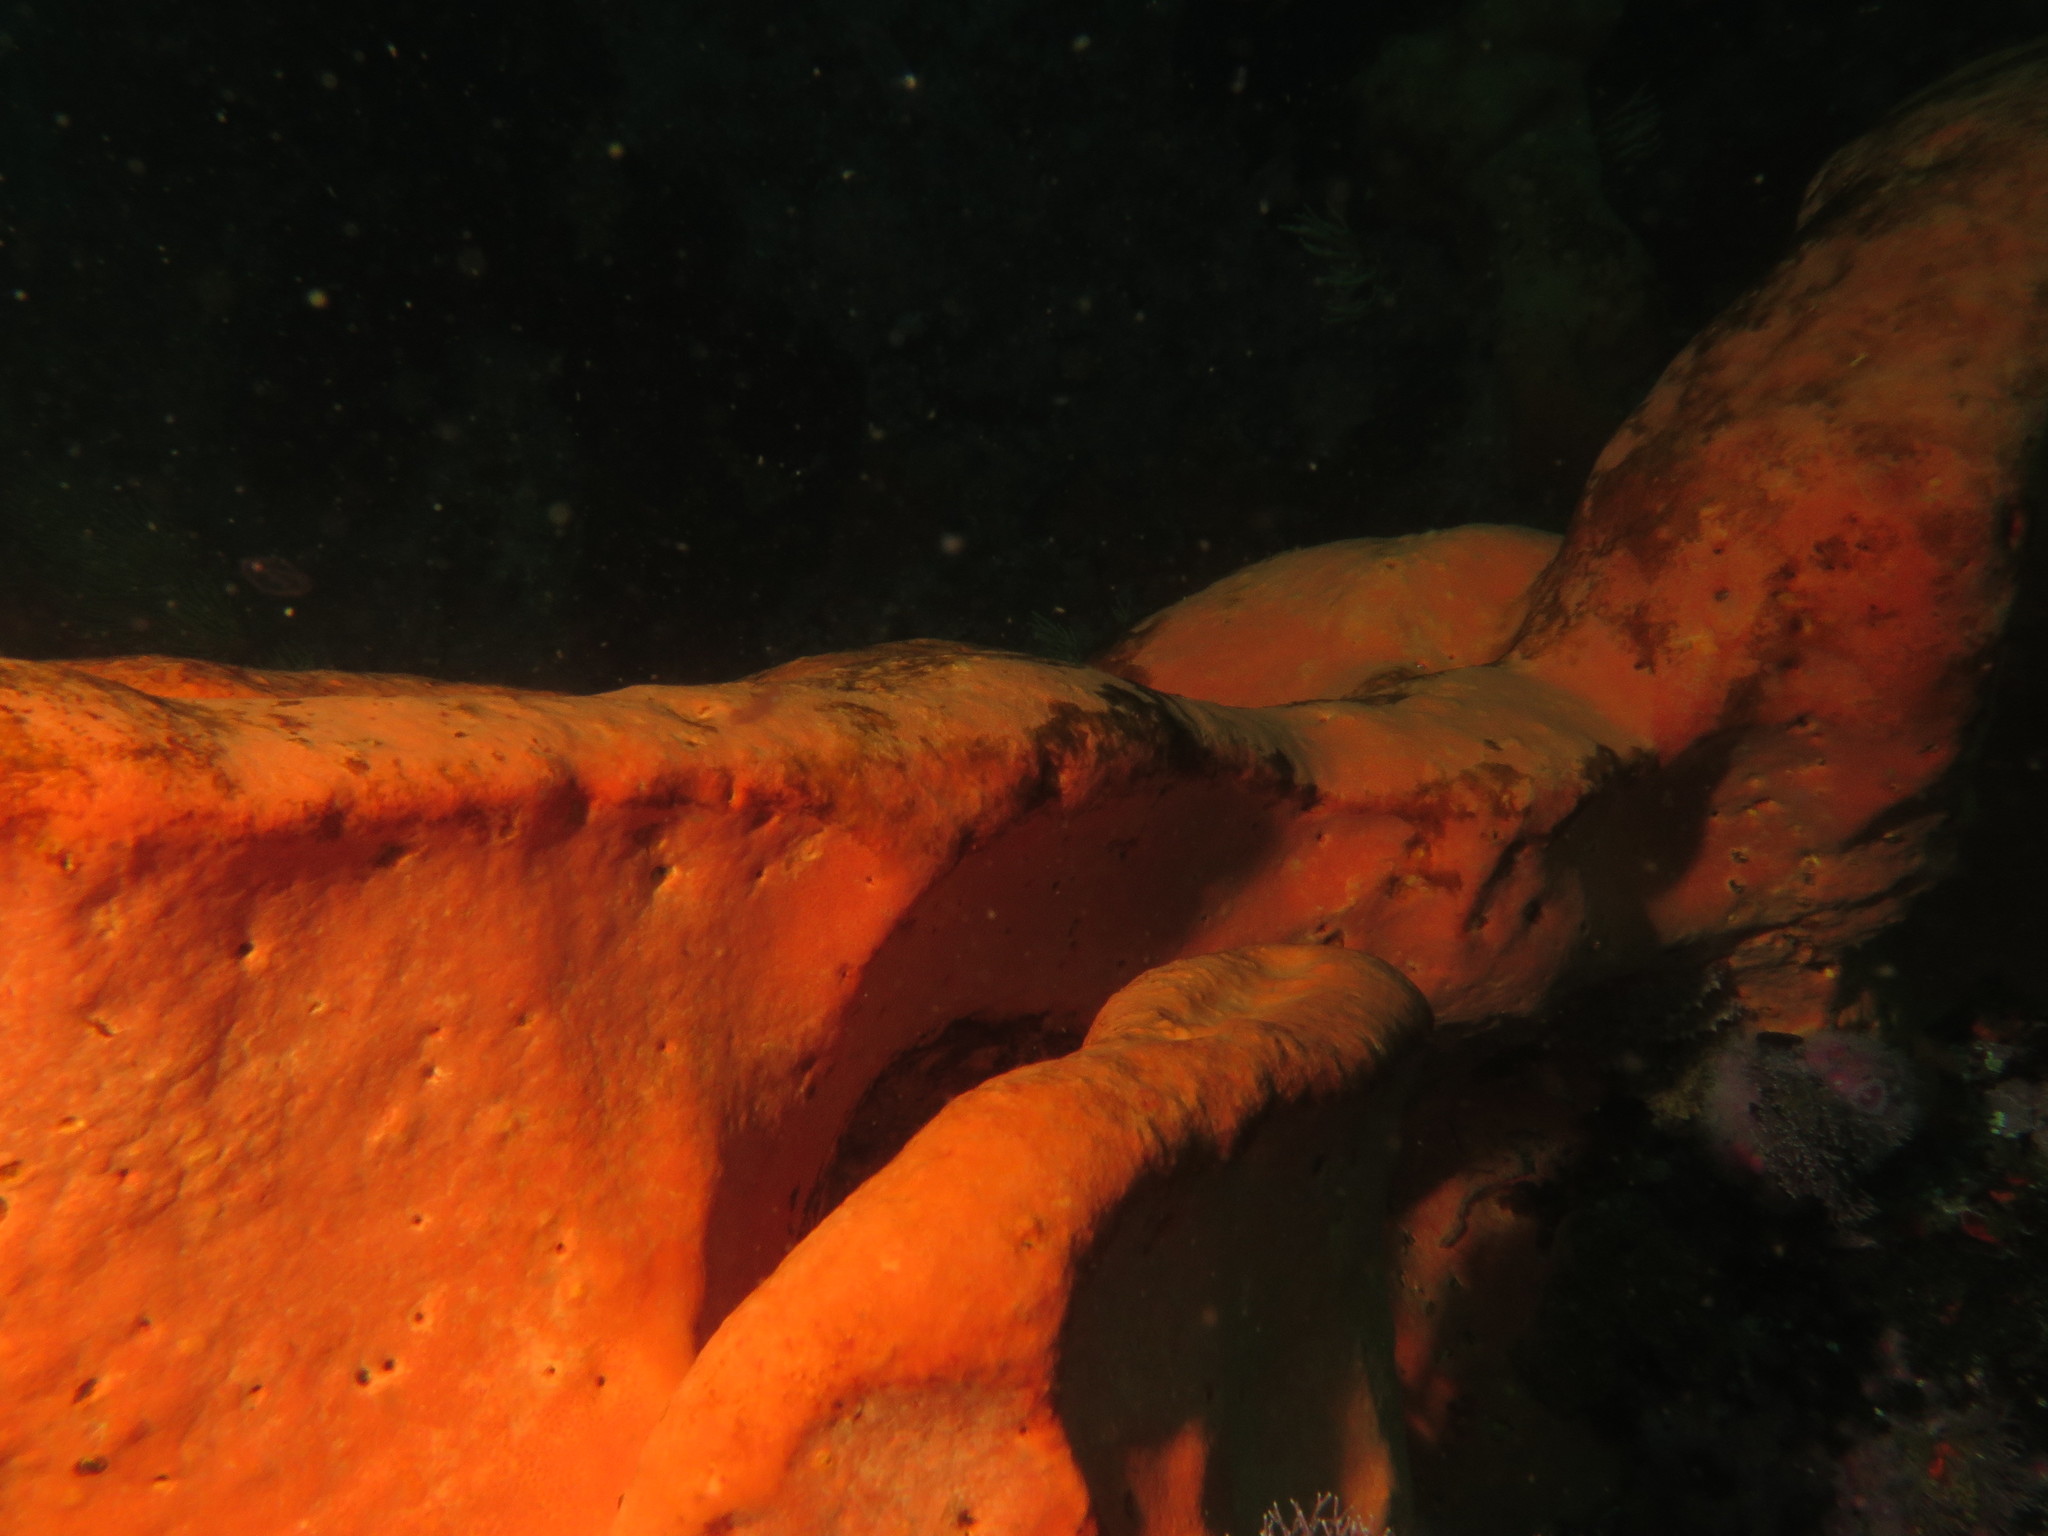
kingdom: Animalia
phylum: Porifera
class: Demospongiae
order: Trachycladida
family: Trachycladidae
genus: Trachycladus
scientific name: Trachycladus spinispirulifer
